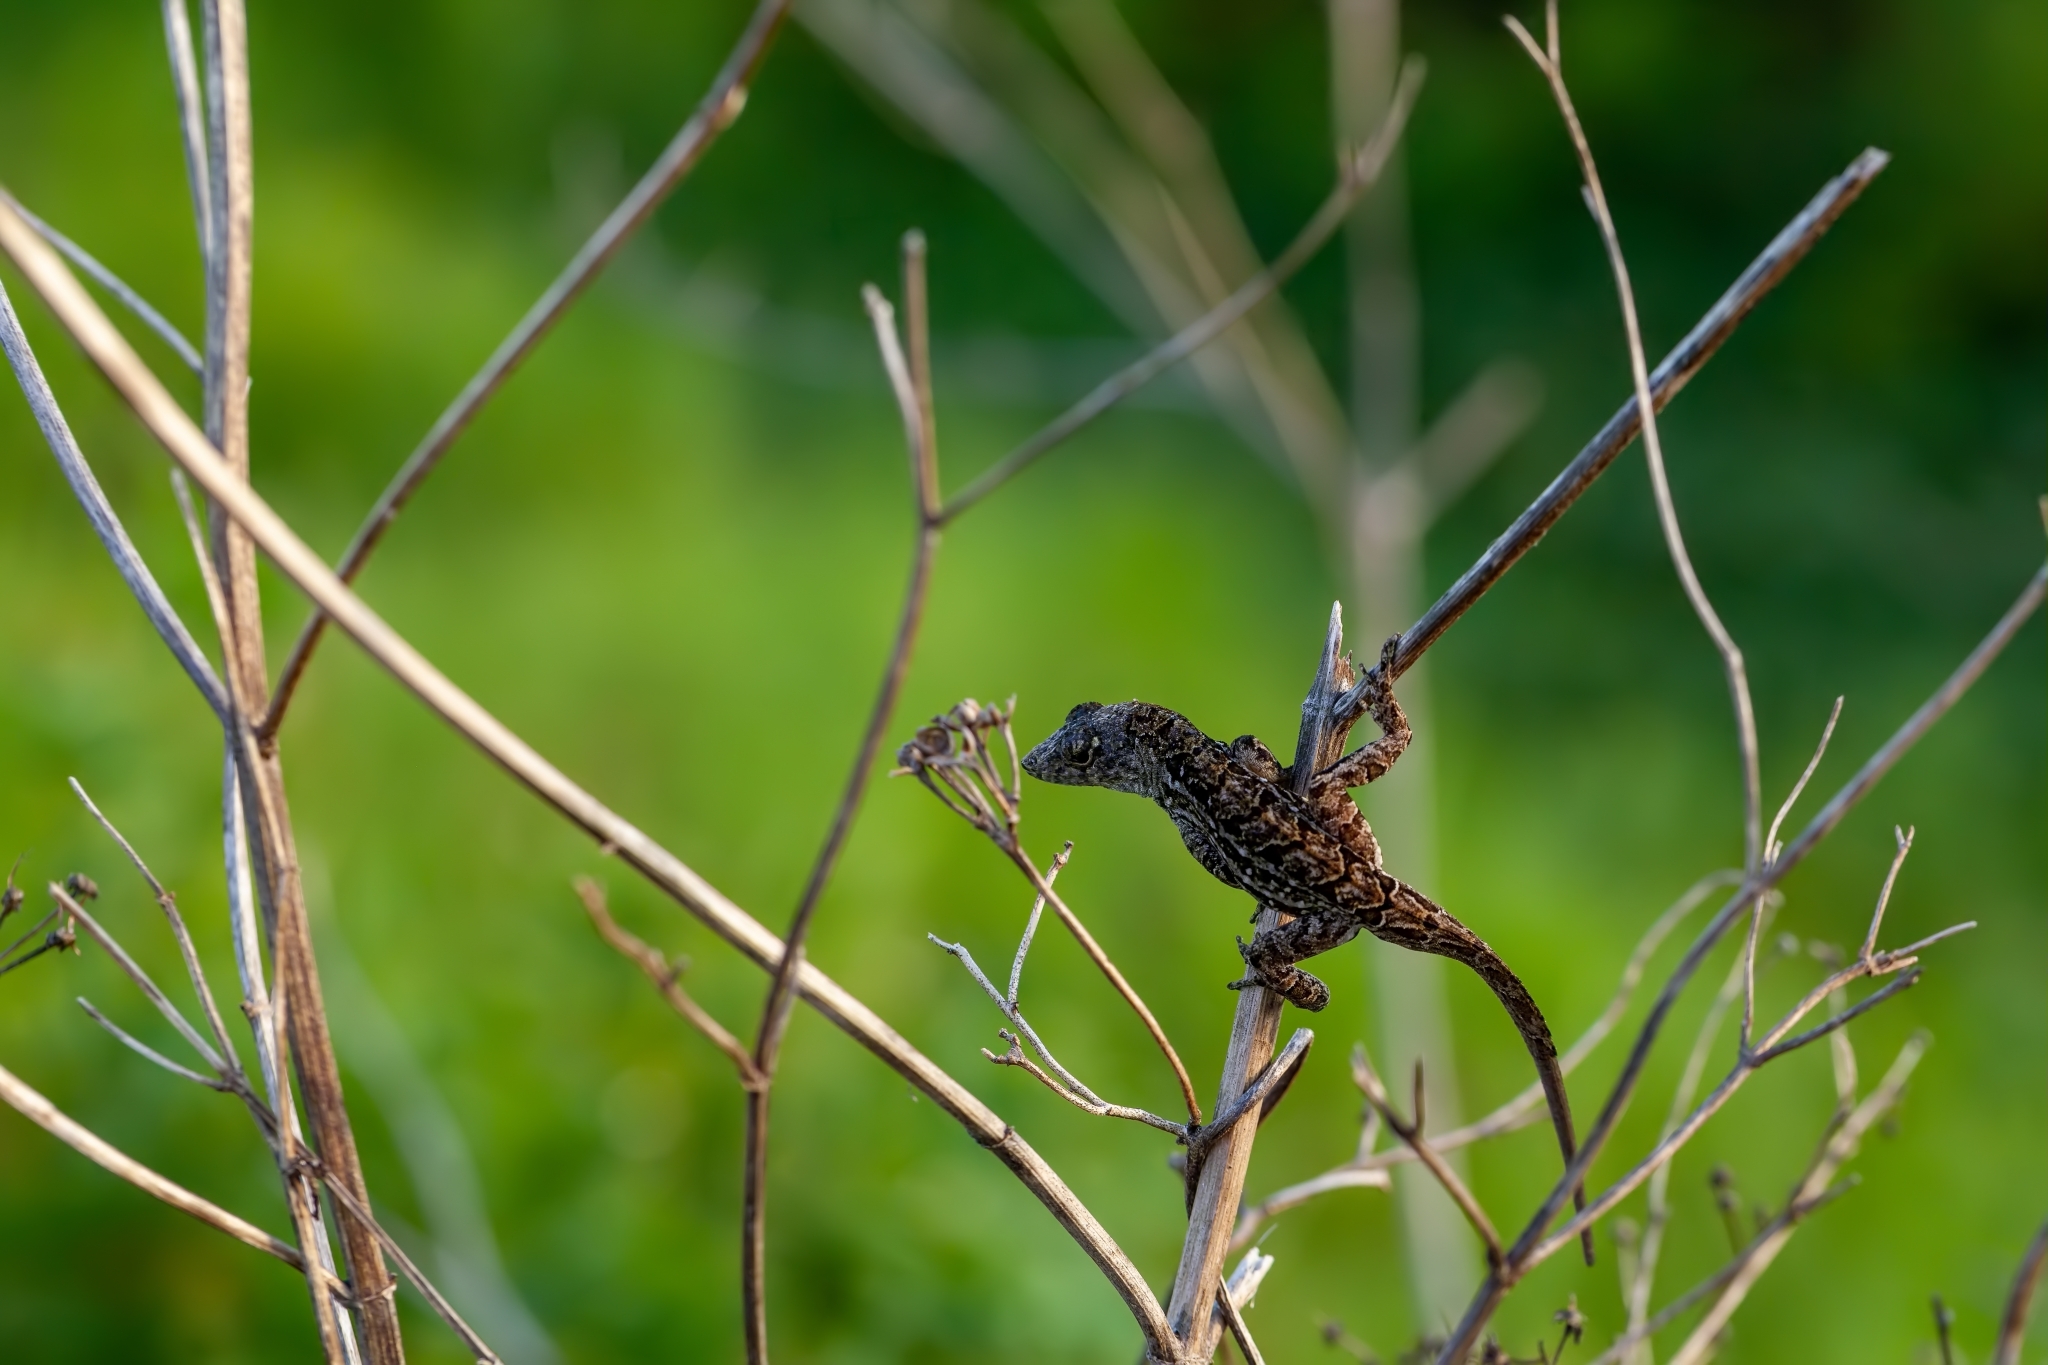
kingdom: Animalia
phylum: Chordata
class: Squamata
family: Dactyloidae
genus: Anolis
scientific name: Anolis sagrei
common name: Brown anole
